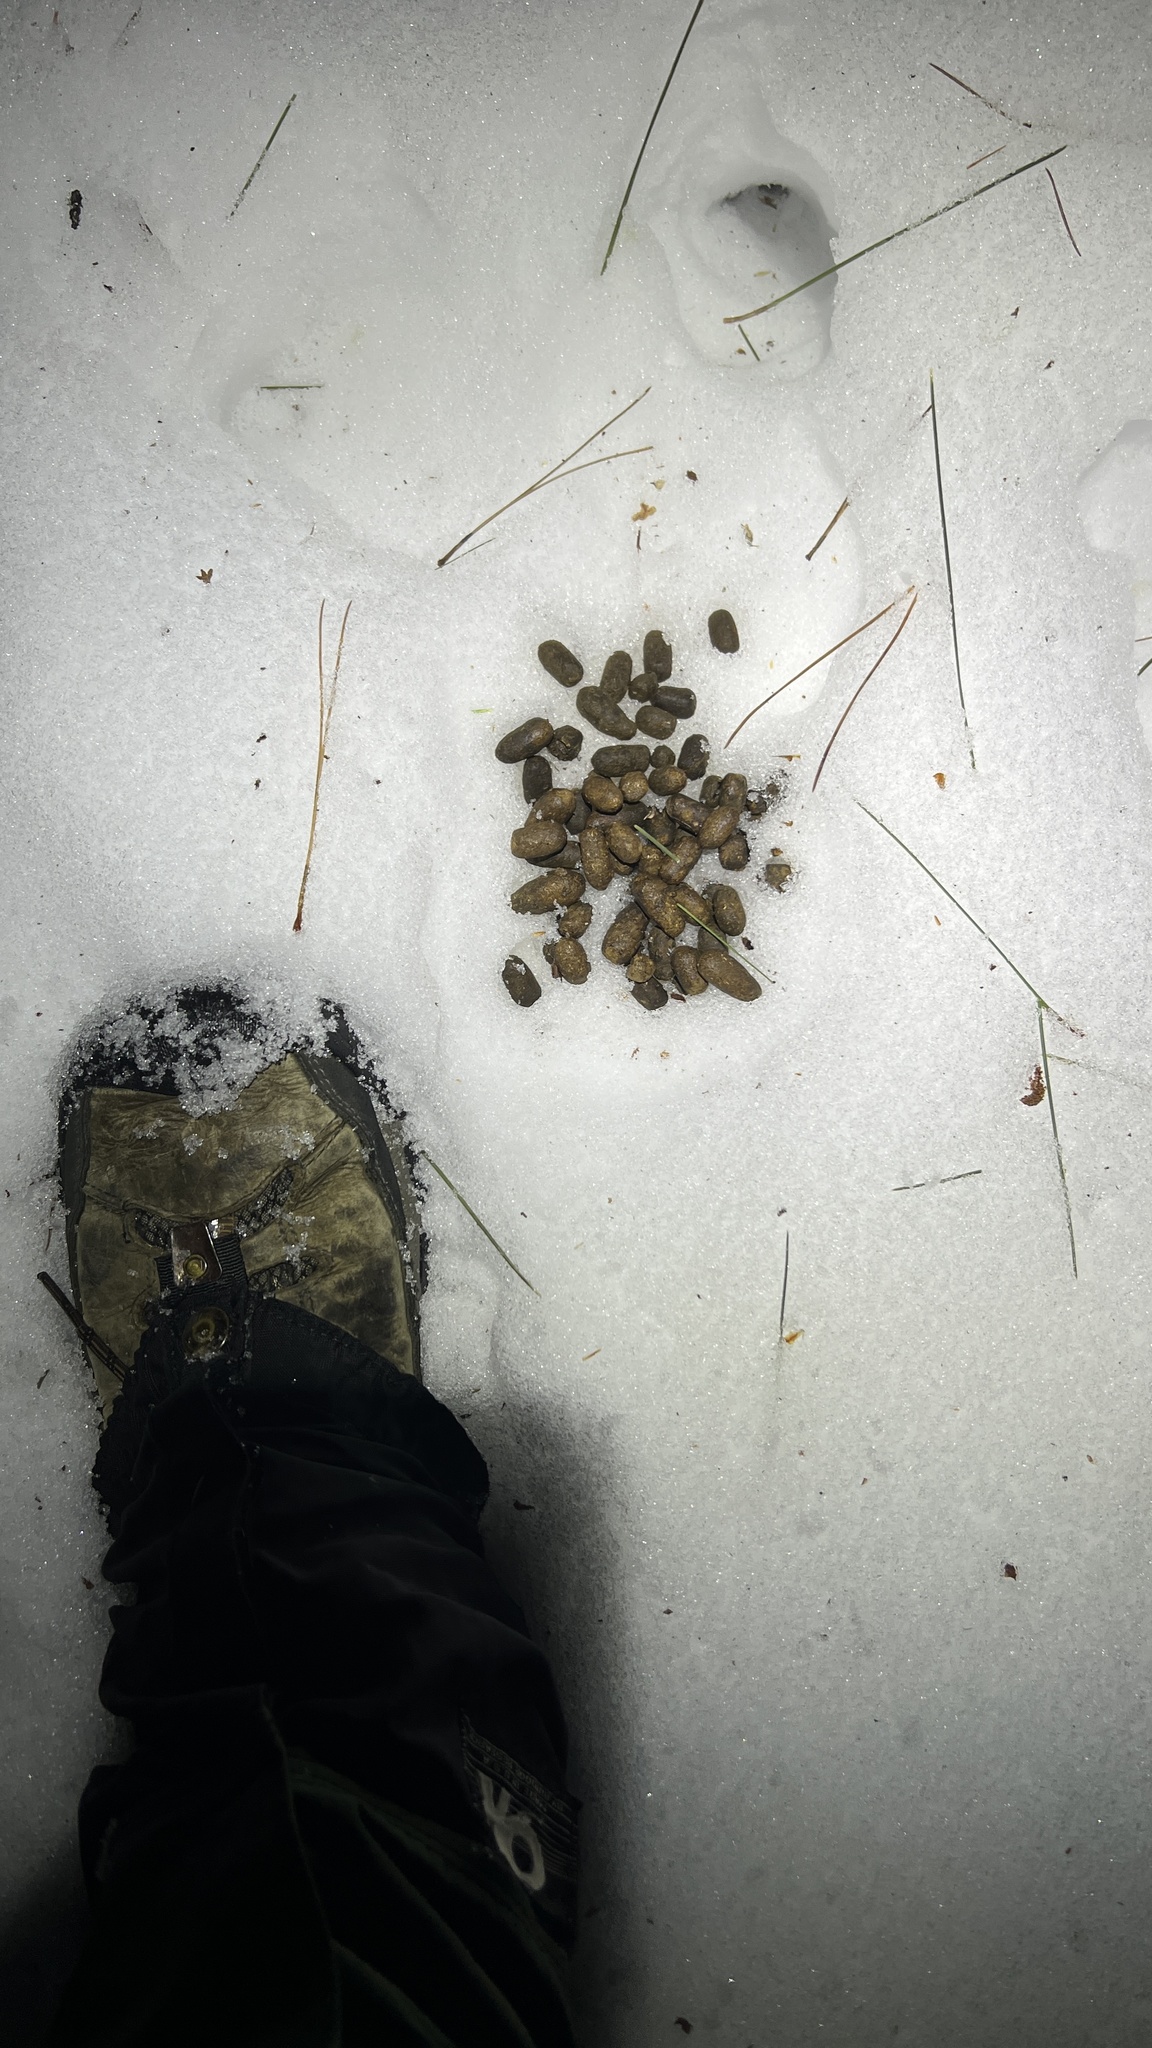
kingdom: Animalia
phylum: Chordata
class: Mammalia
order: Artiodactyla
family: Cervidae
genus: Odocoileus
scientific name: Odocoileus virginianus
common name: White-tailed deer
